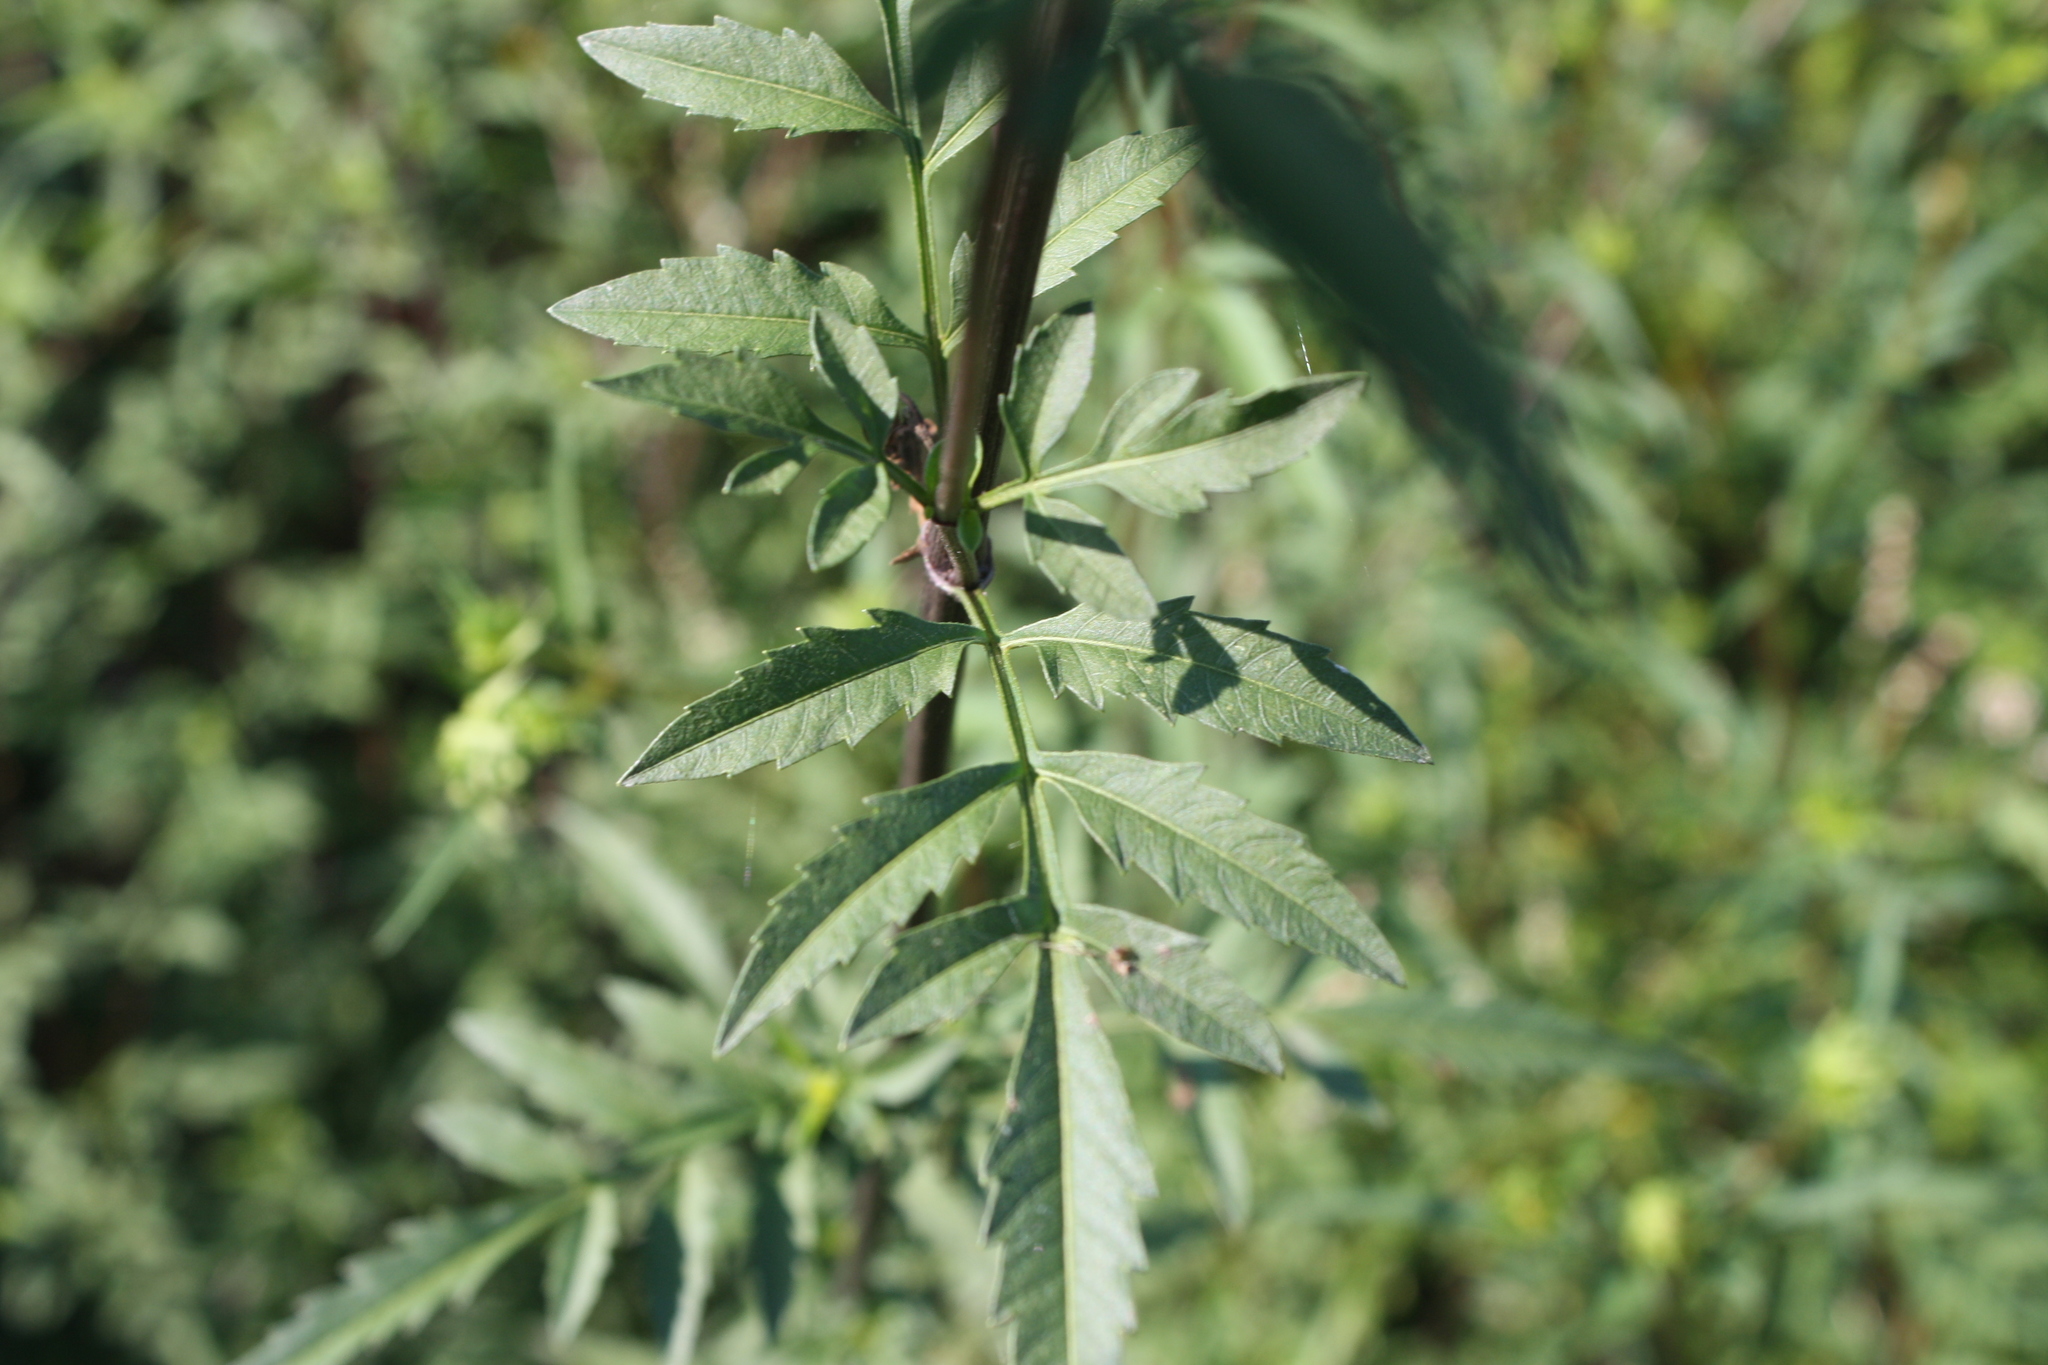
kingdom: Plantae
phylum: Tracheophyta
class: Magnoliopsida
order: Asterales
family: Asteraceae
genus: Bidens
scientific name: Bidens aristosa
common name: Western tickseed
